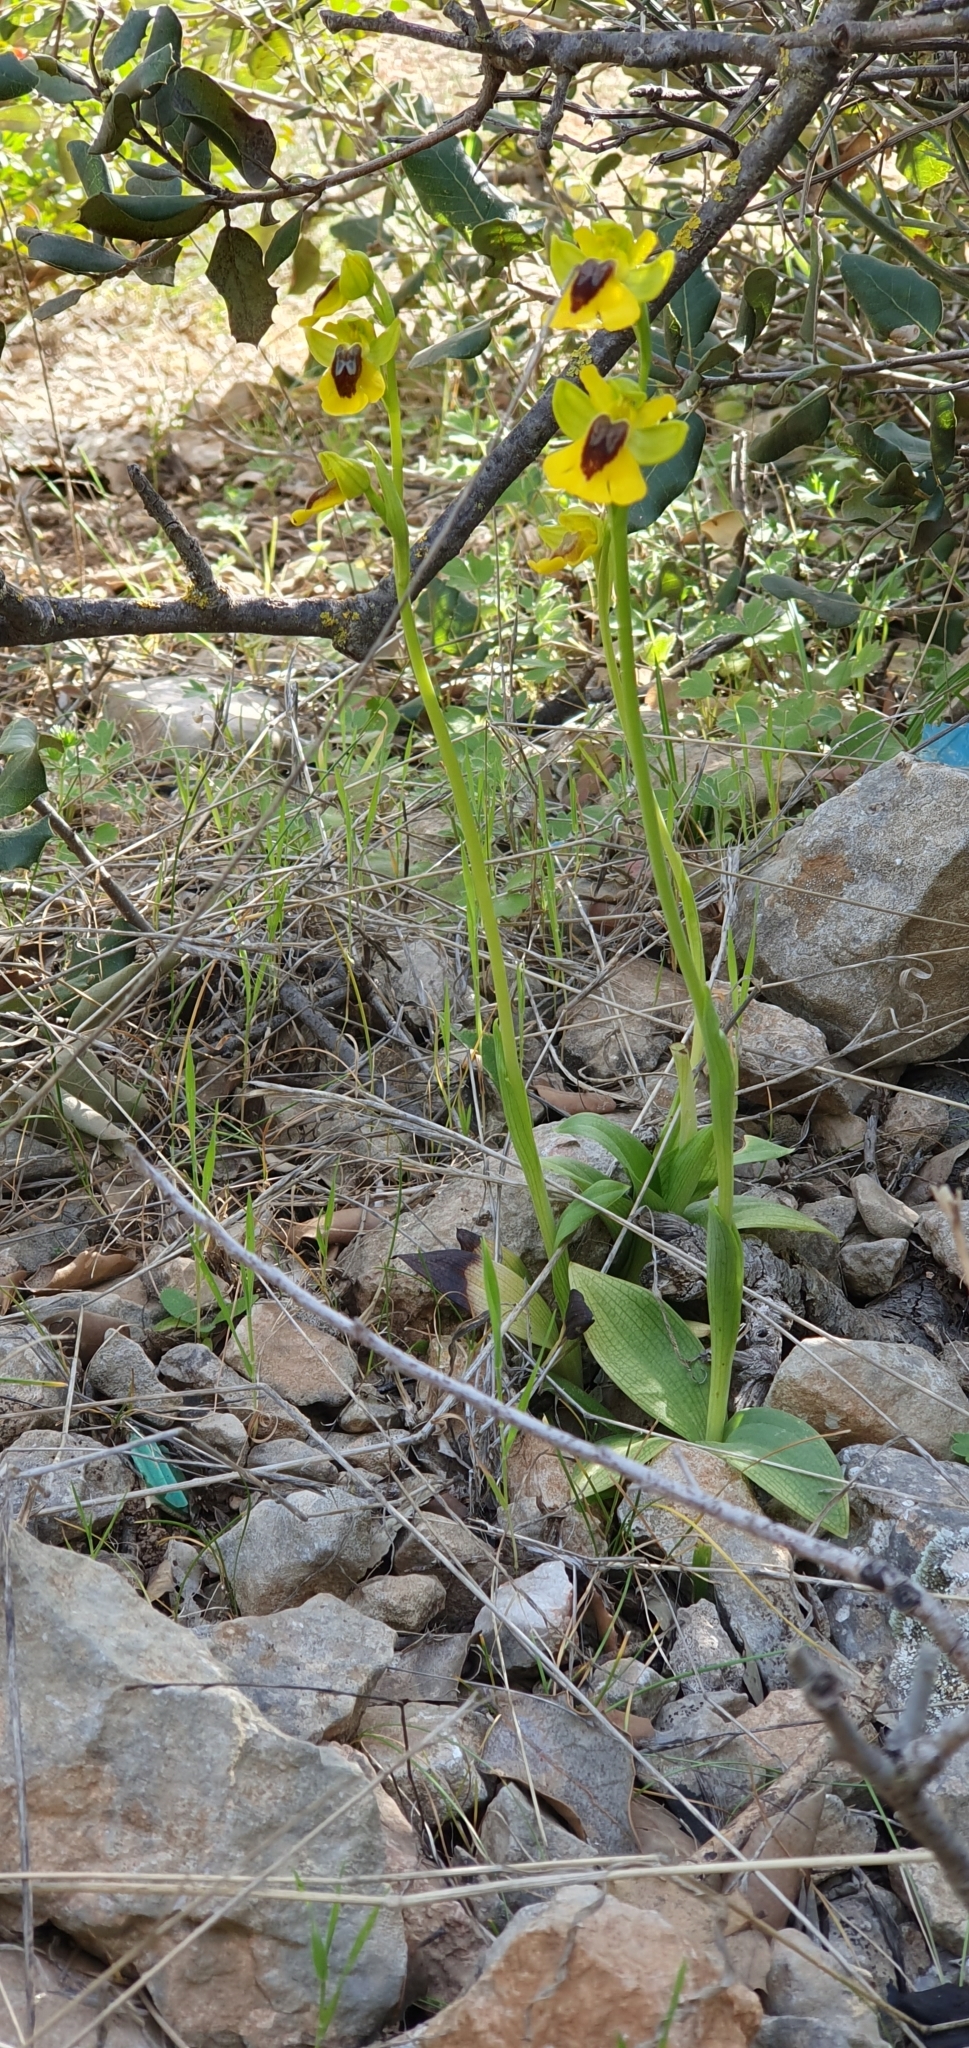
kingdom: Plantae
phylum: Tracheophyta
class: Liliopsida
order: Asparagales
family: Orchidaceae
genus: Ophrys
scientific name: Ophrys lutea
